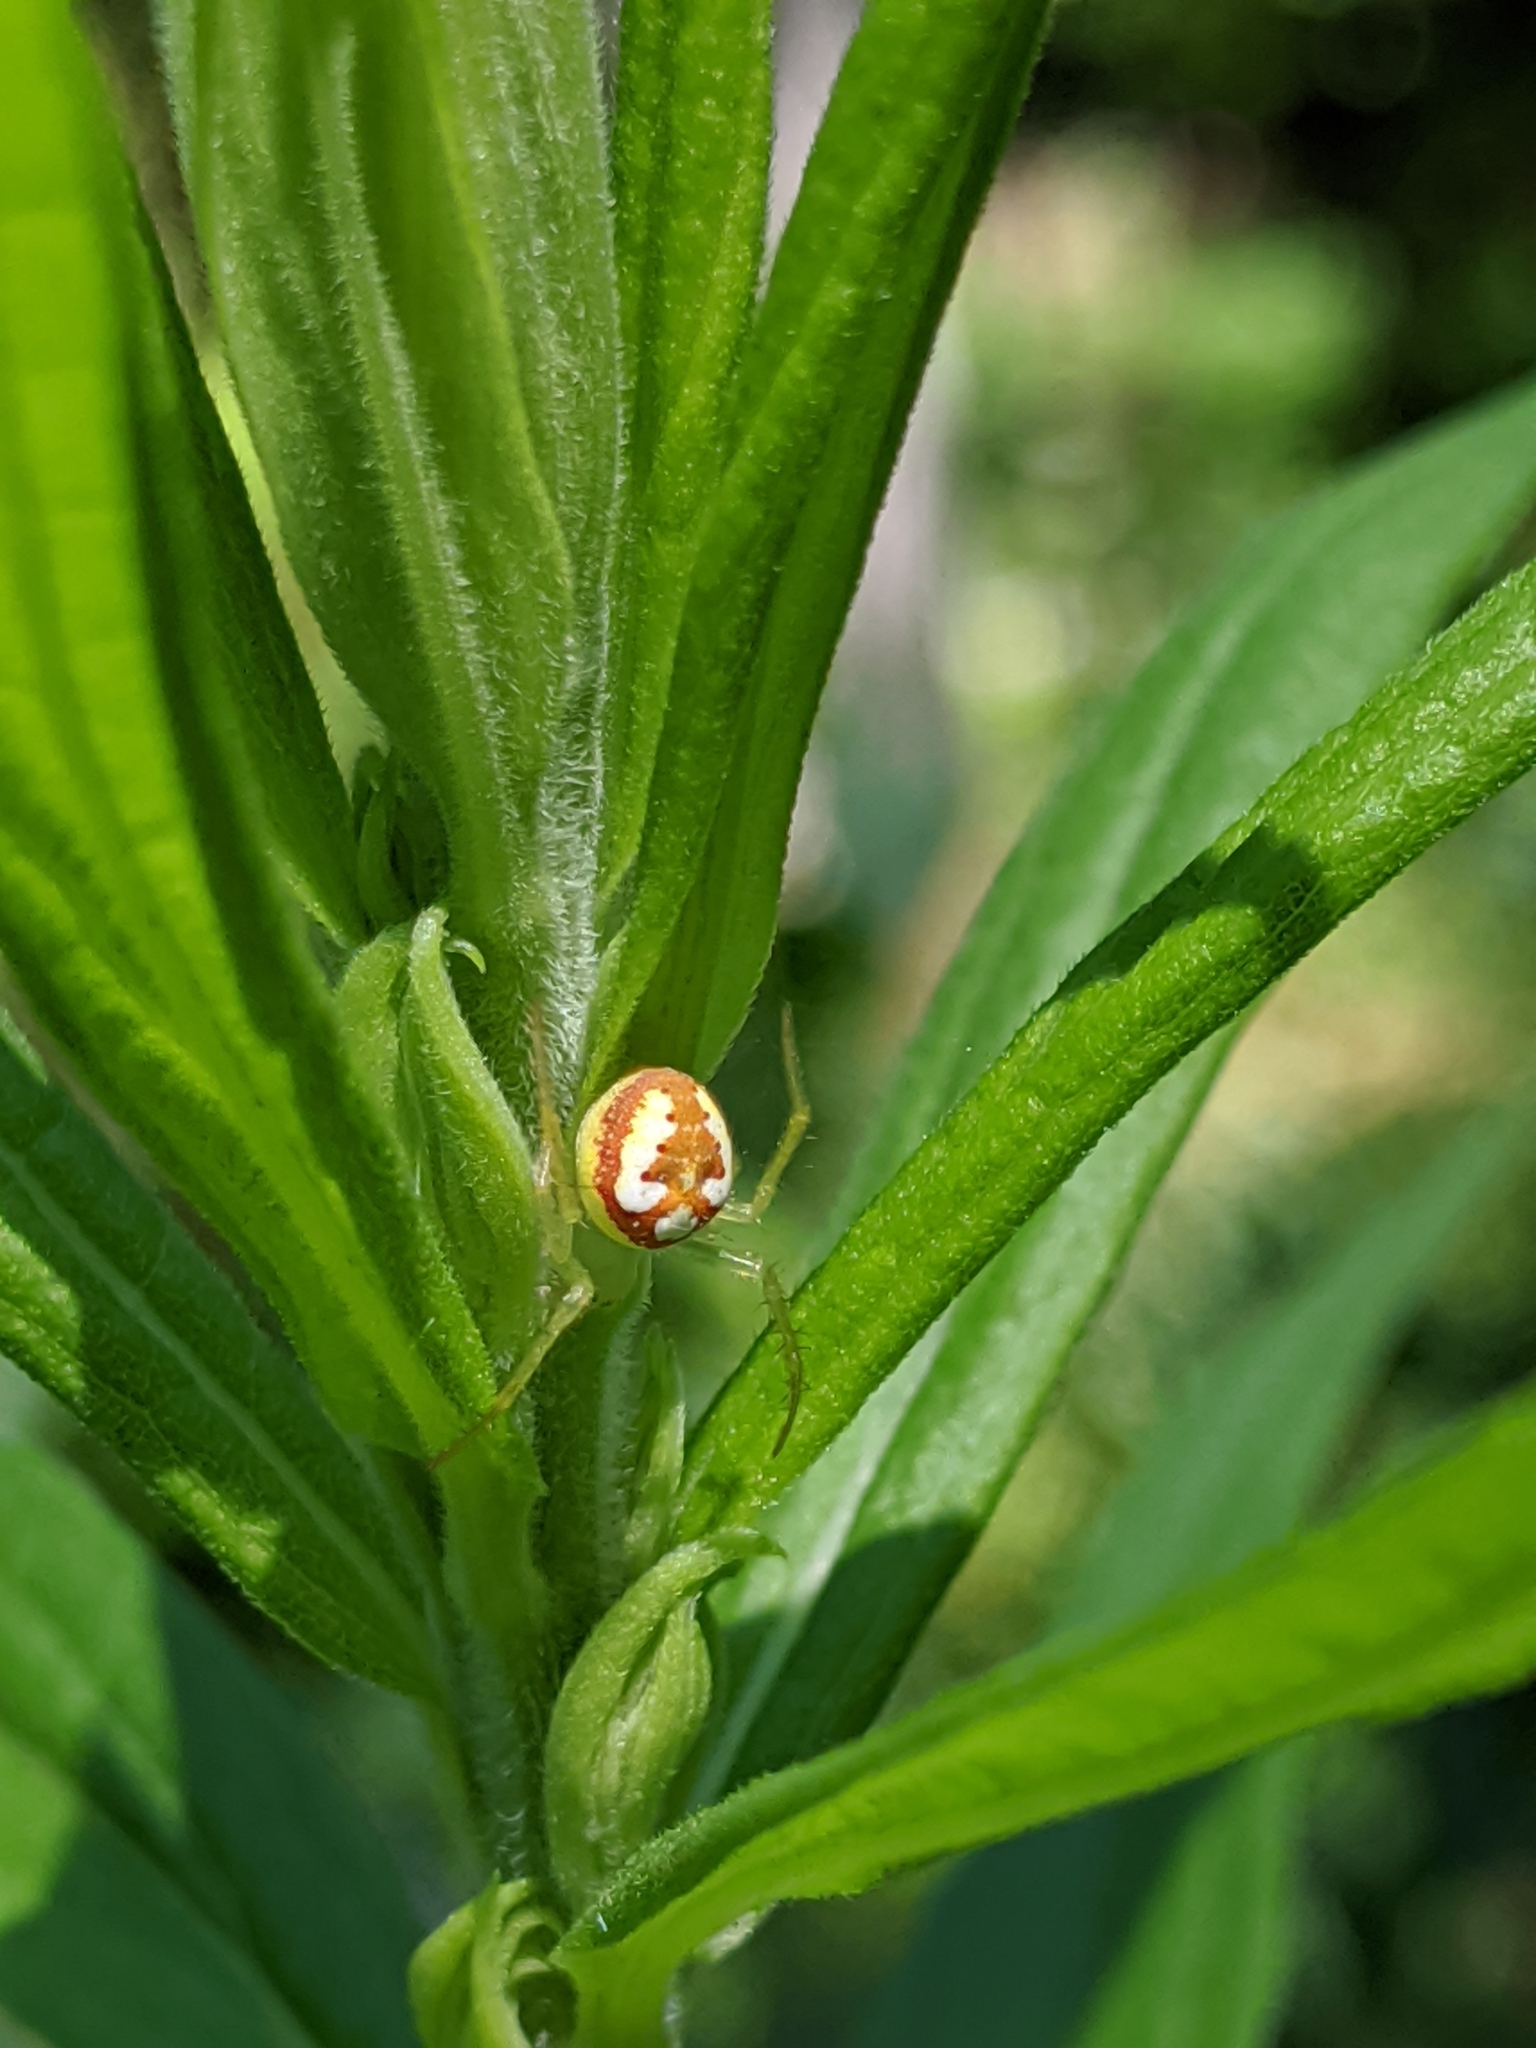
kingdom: Animalia
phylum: Arthropoda
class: Arachnida
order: Araneae
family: Araneidae
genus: Araneus
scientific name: Araneus guttulatus
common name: Red-backed orbweaver
